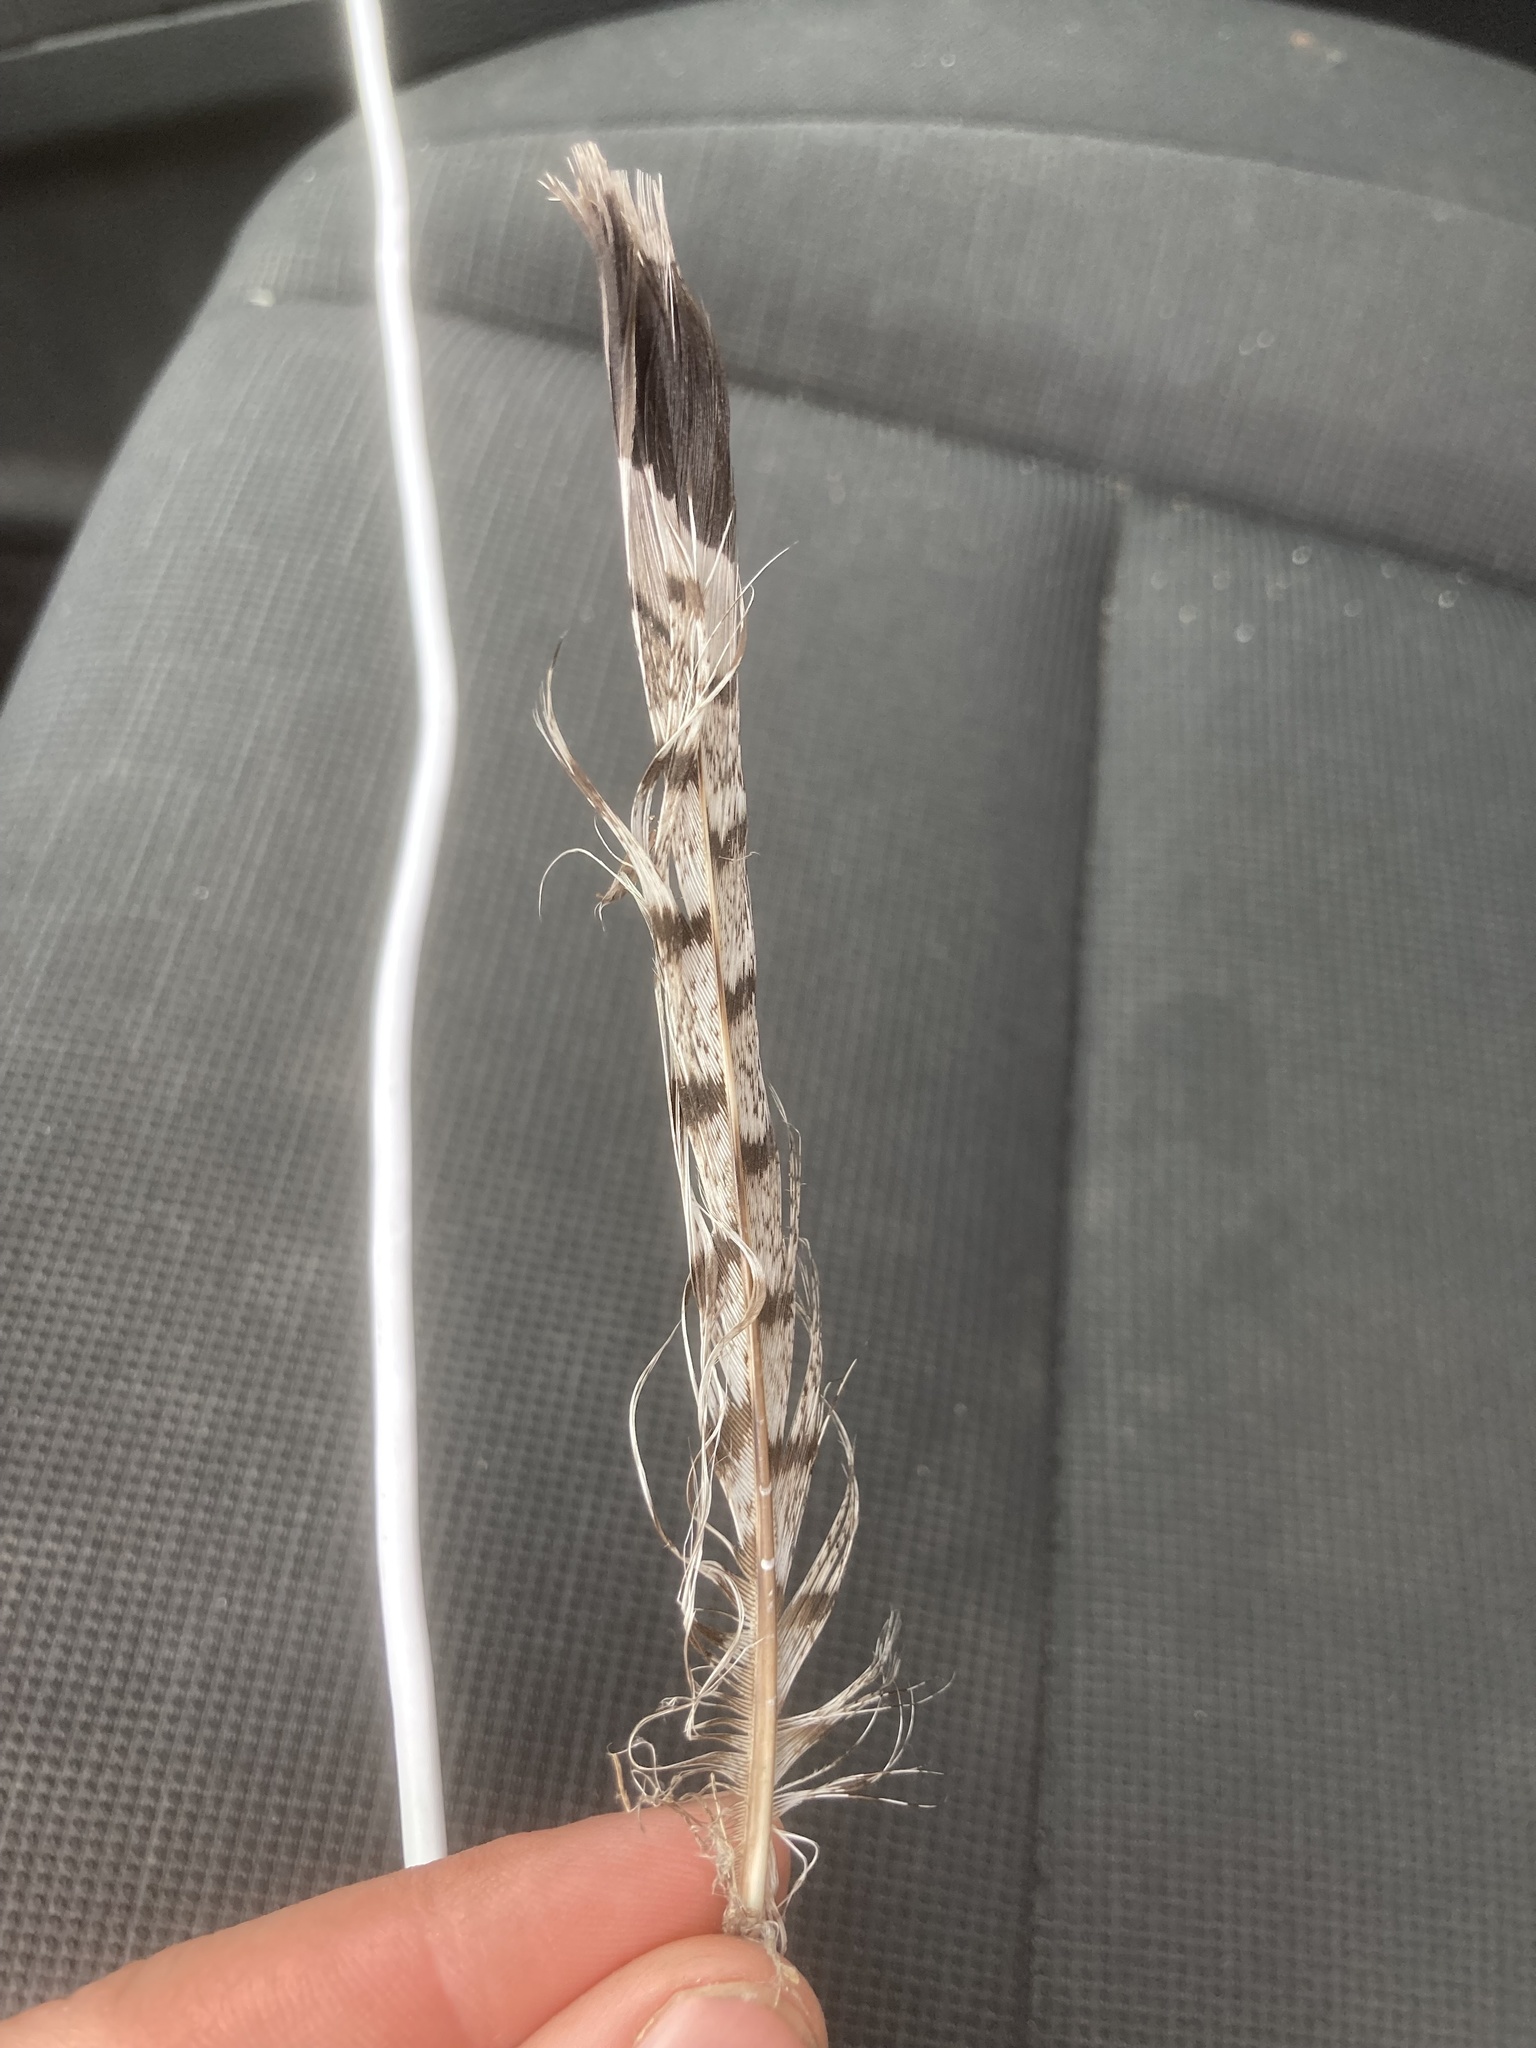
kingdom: Animalia
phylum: Chordata
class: Aves
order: Galliformes
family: Phasianidae
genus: Bonasa
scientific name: Bonasa umbellus
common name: Ruffed grouse
